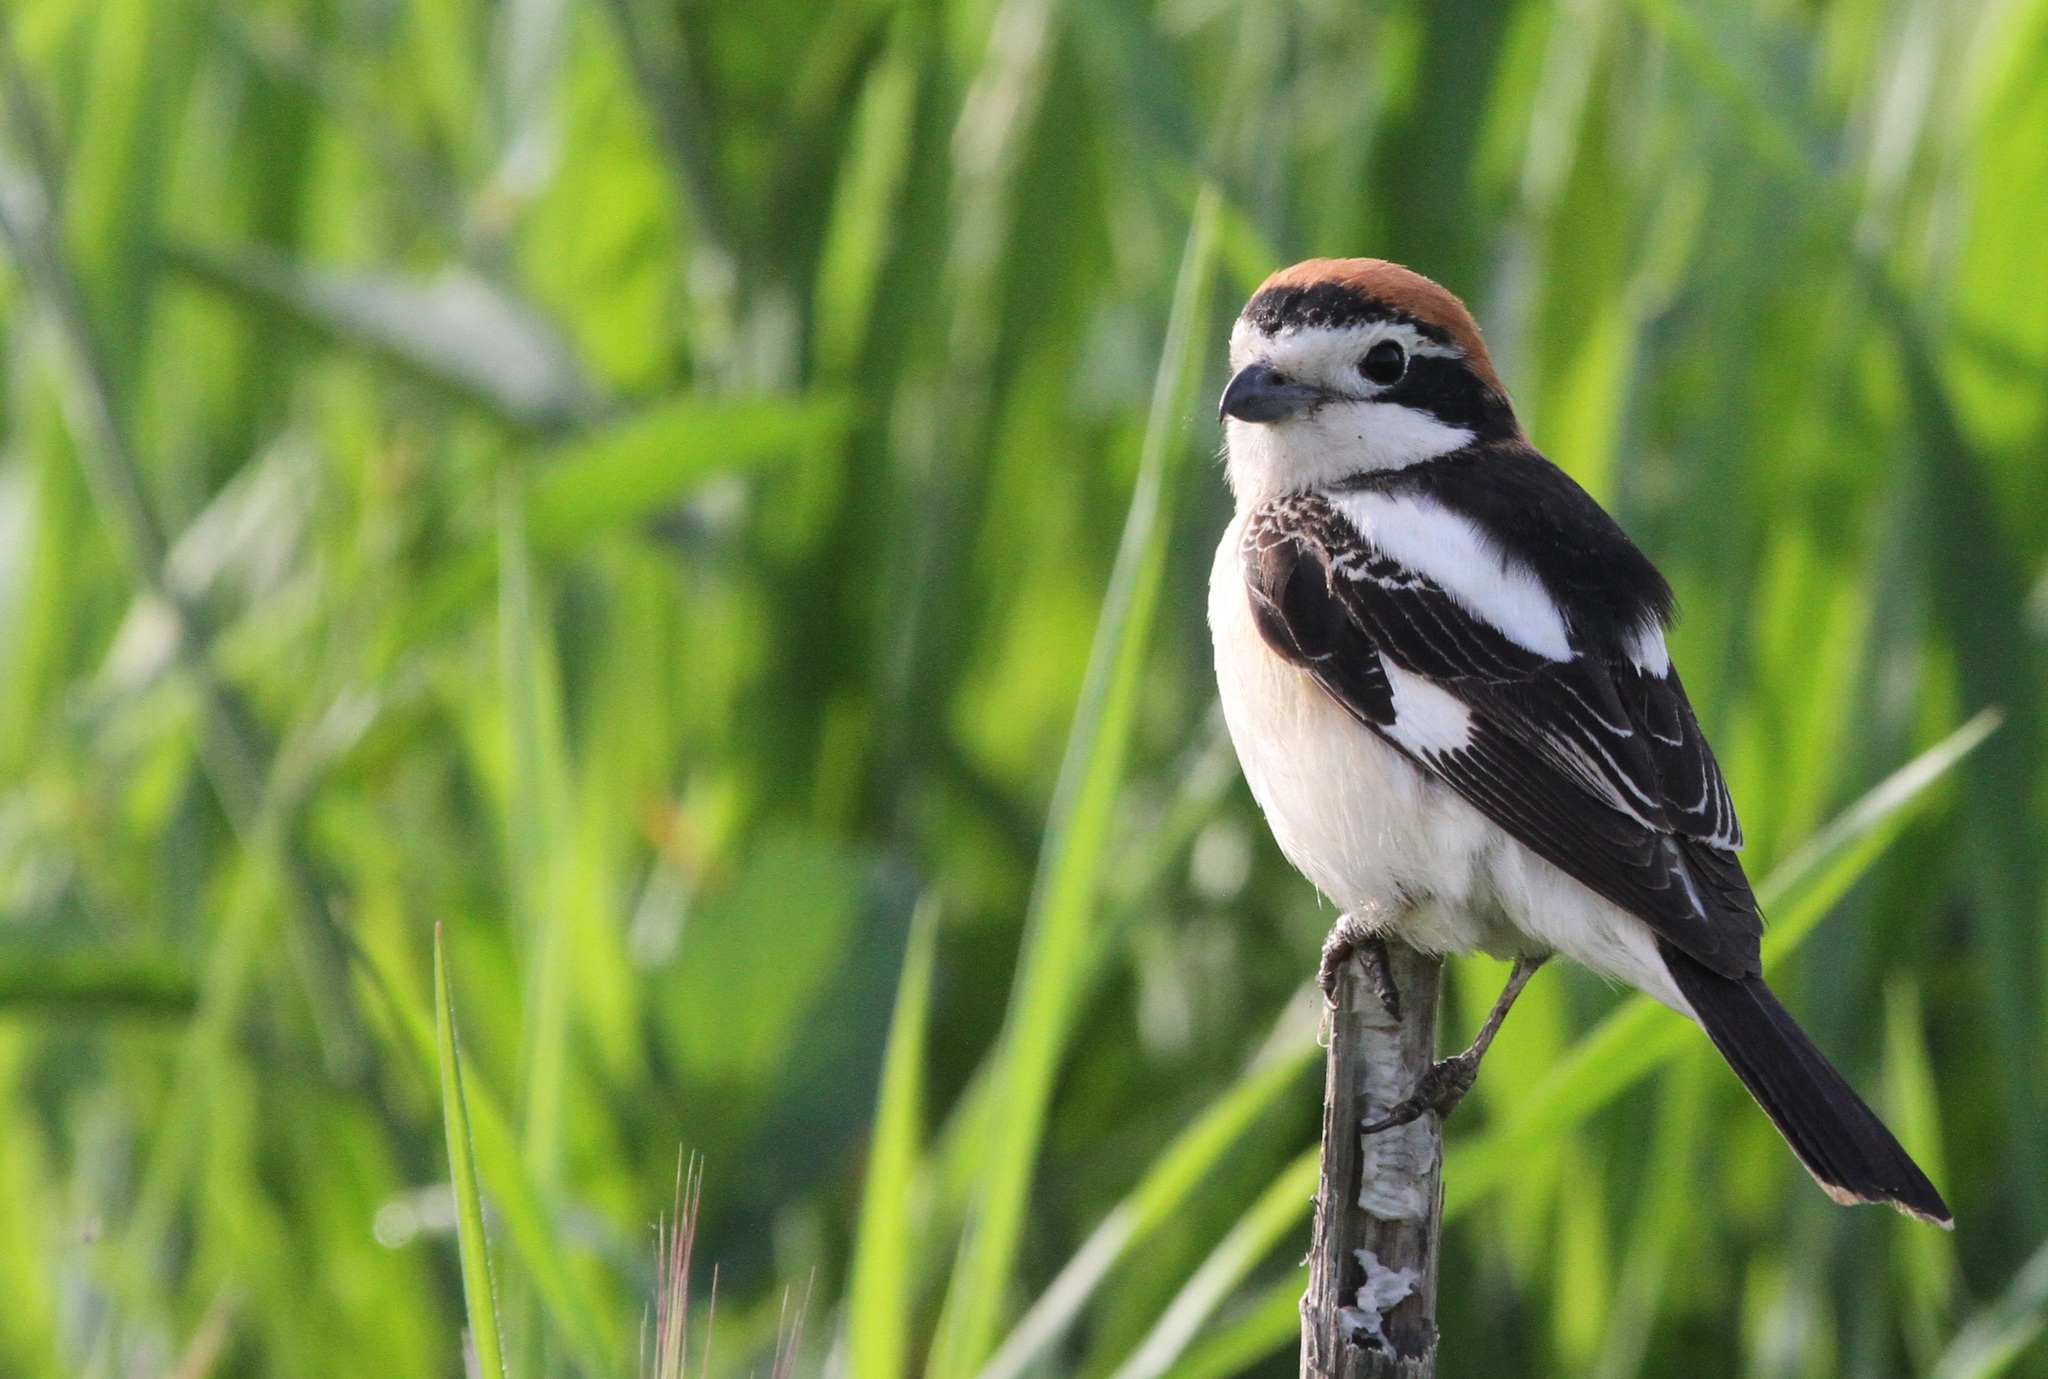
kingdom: Animalia
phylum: Chordata
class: Aves
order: Passeriformes
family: Laniidae
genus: Lanius
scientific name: Lanius senator
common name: Woodchat shrike
